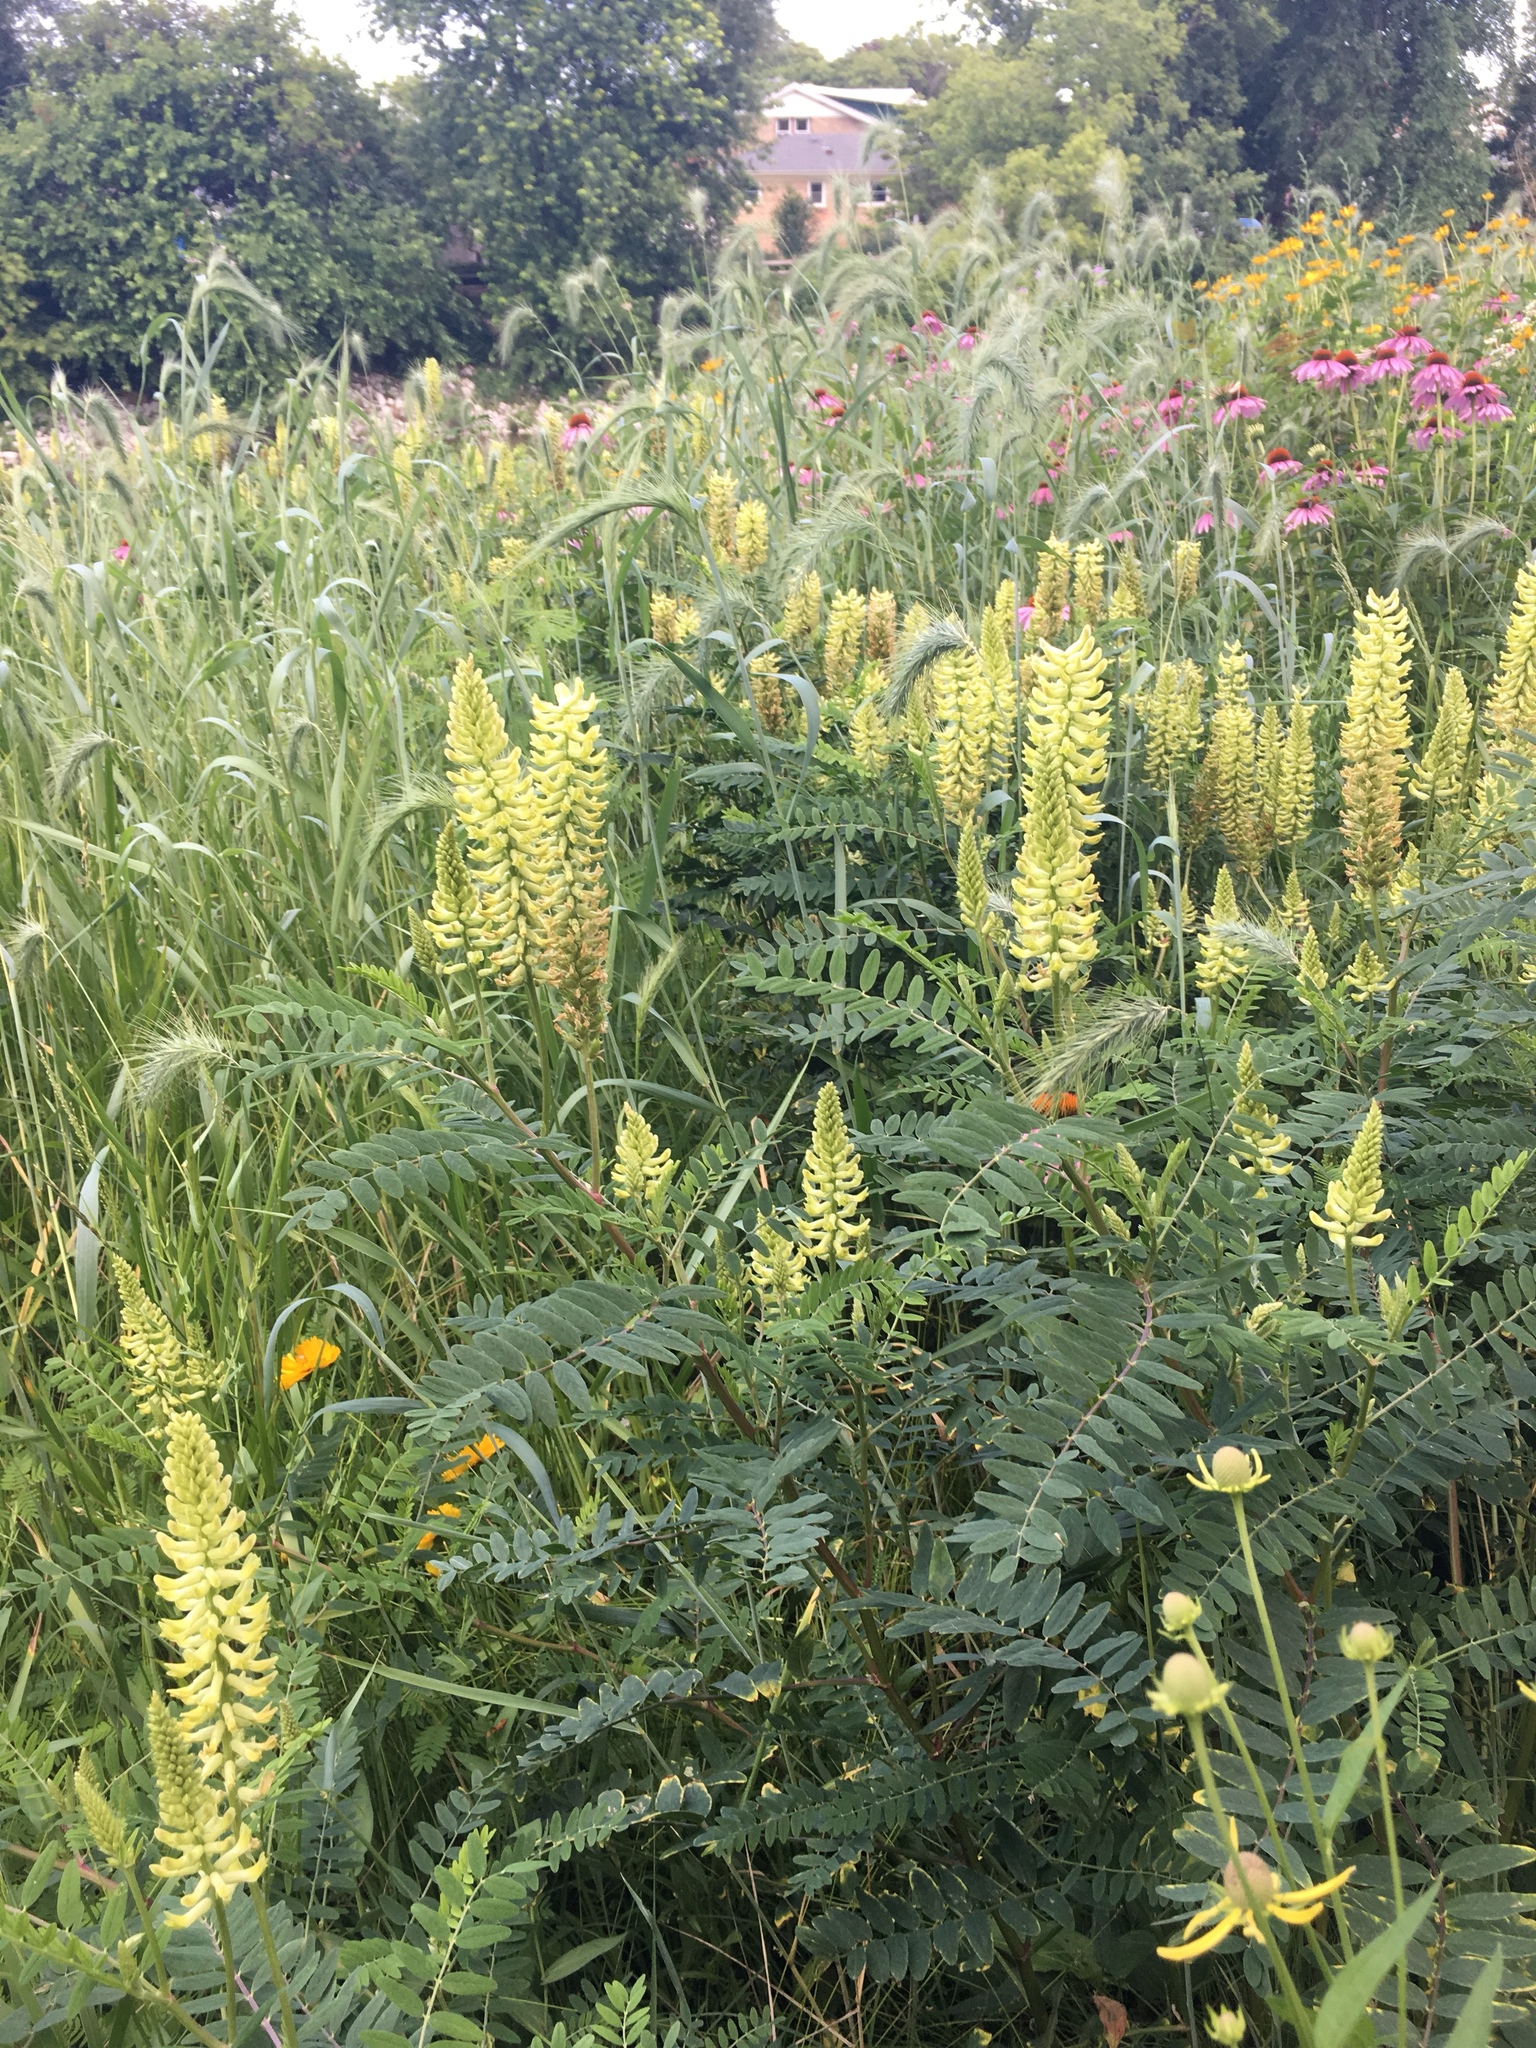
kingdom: Plantae
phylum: Tracheophyta
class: Magnoliopsida
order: Fabales
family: Fabaceae
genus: Astragalus
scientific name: Astragalus canadensis
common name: Canada milk-vetch
